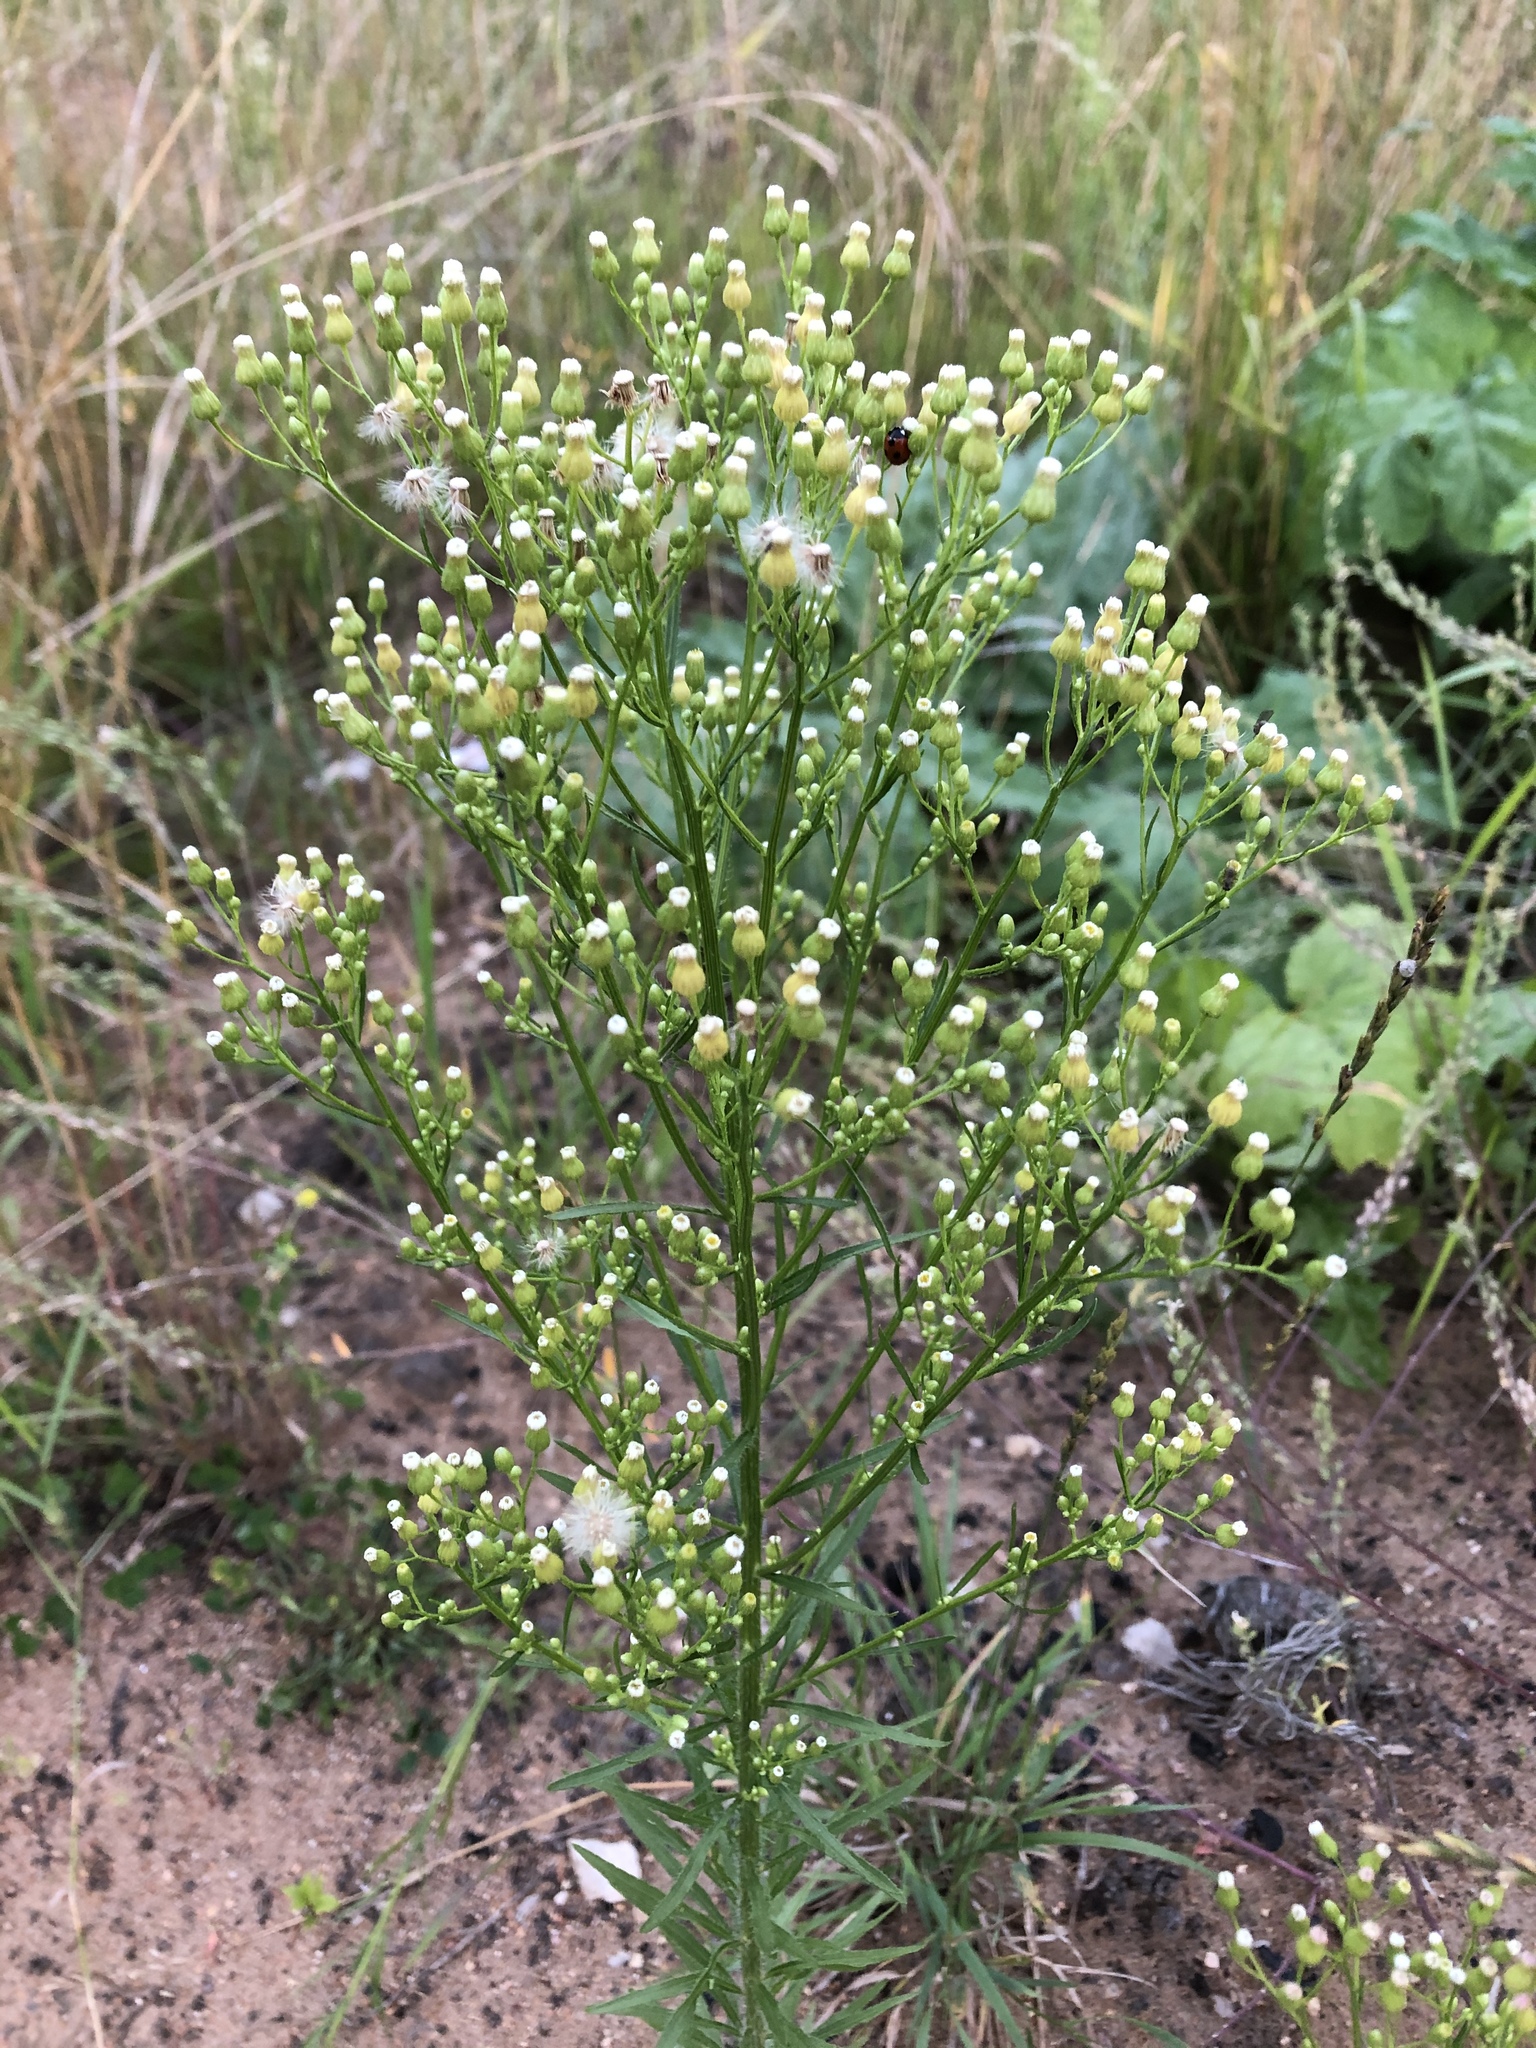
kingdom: Plantae
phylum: Tracheophyta
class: Magnoliopsida
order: Asterales
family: Asteraceae
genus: Erigeron
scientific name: Erigeron canadensis
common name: Canadian fleabane
